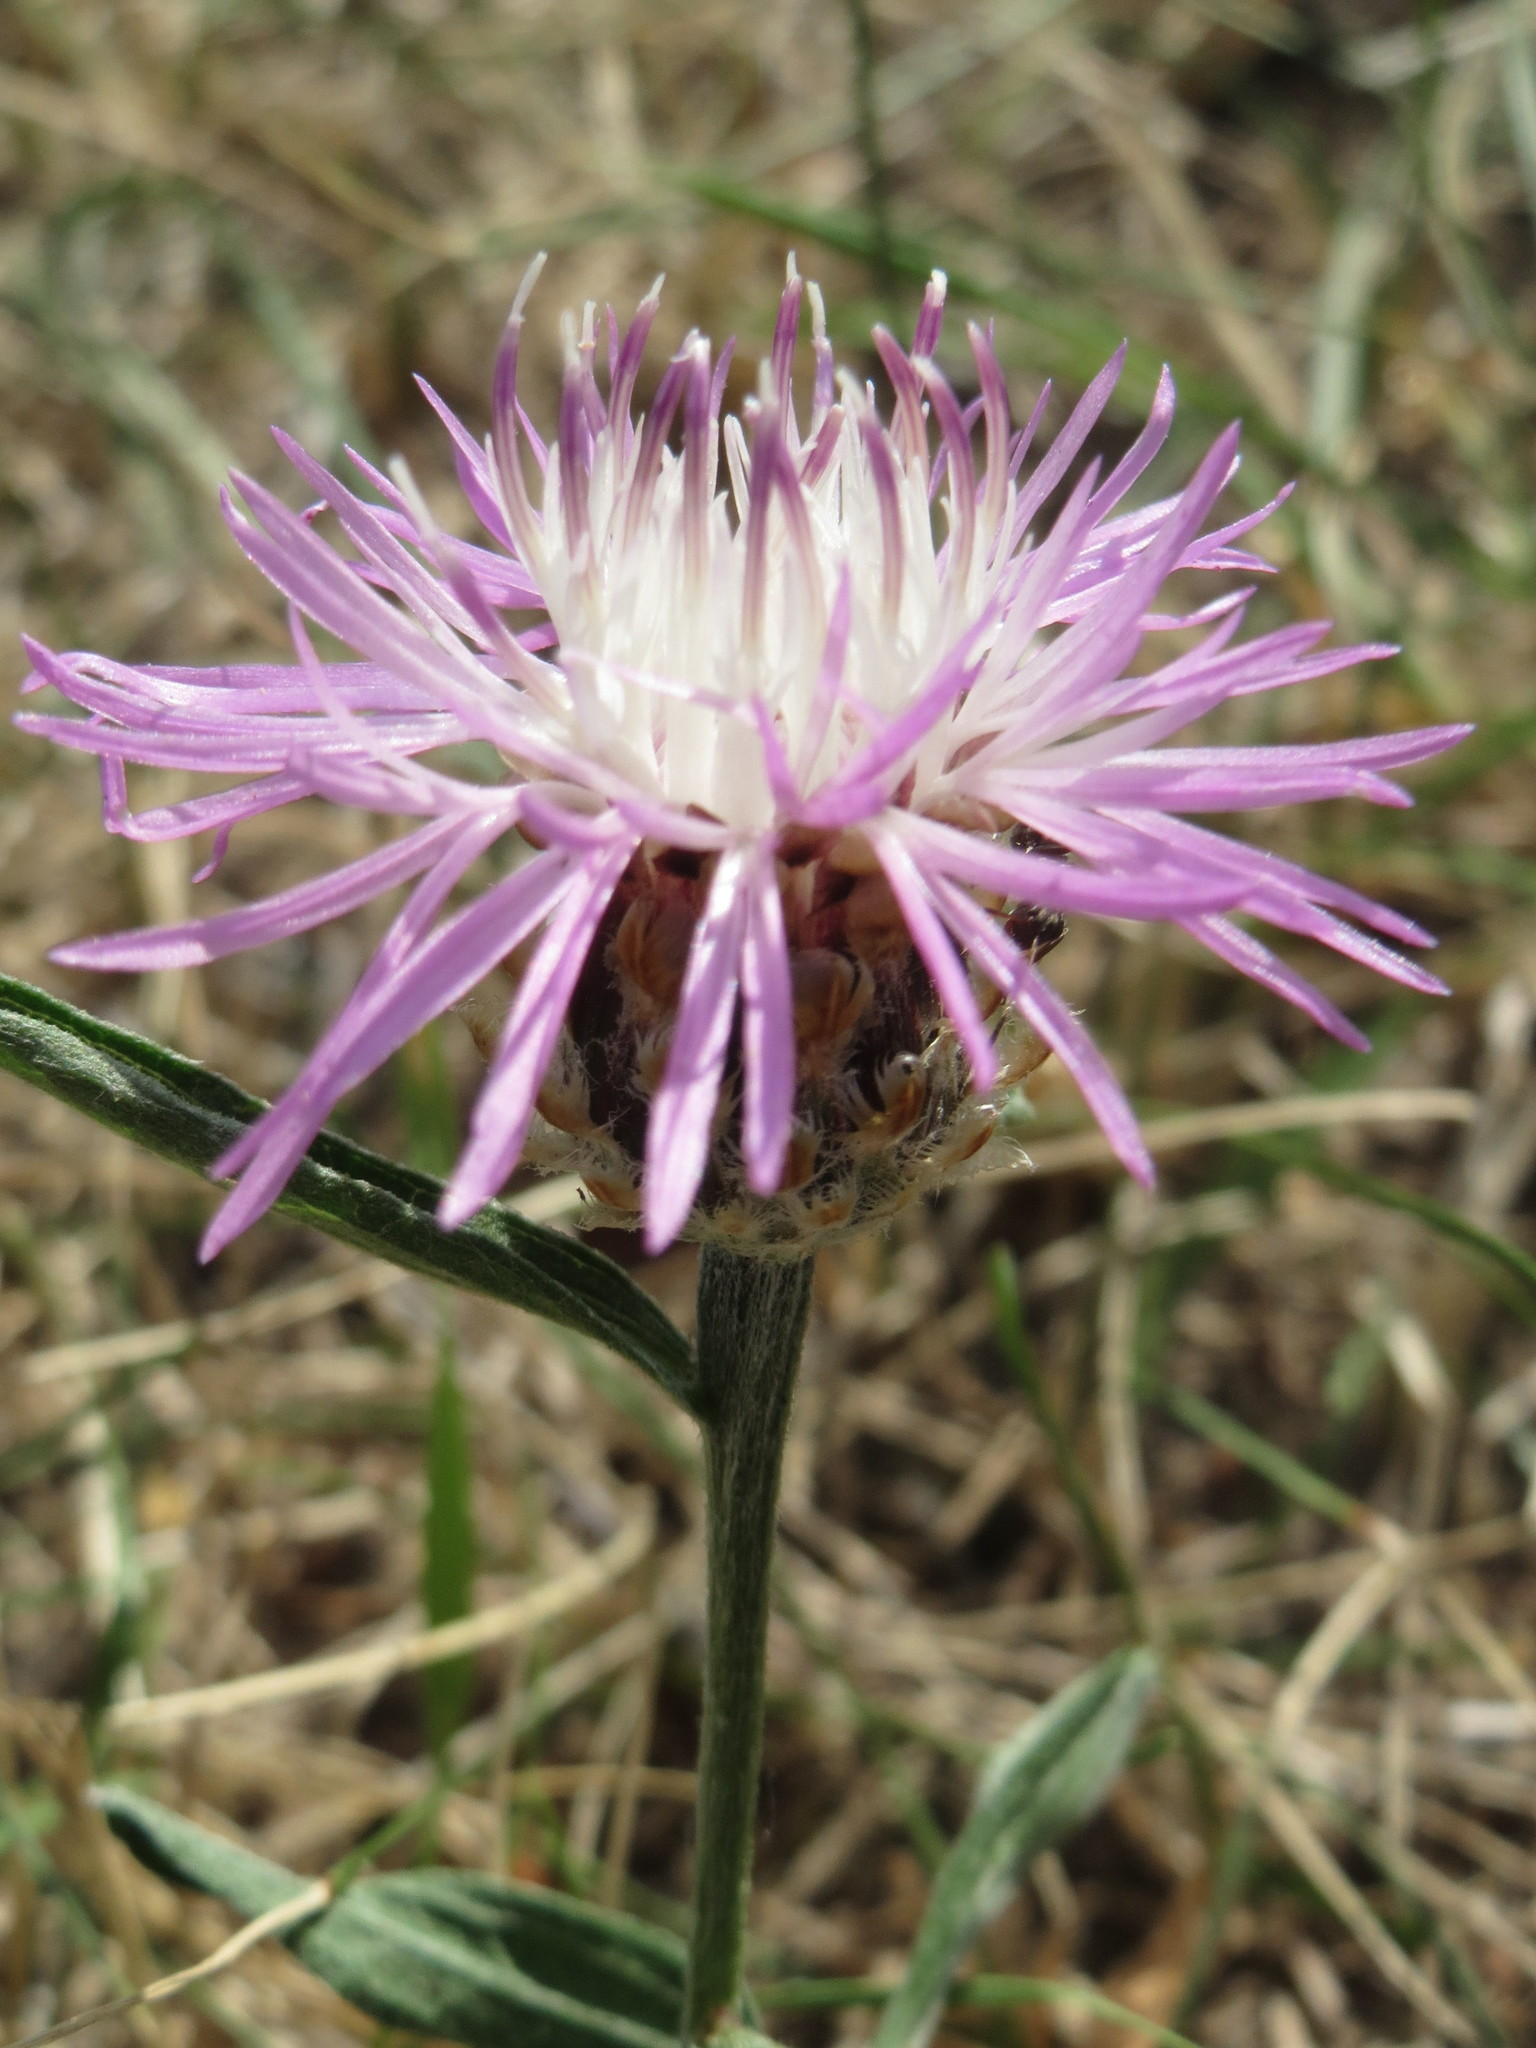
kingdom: Plantae
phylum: Tracheophyta
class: Magnoliopsida
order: Asterales
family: Asteraceae
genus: Centaurea
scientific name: Centaurea jacea
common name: Brown knapweed
